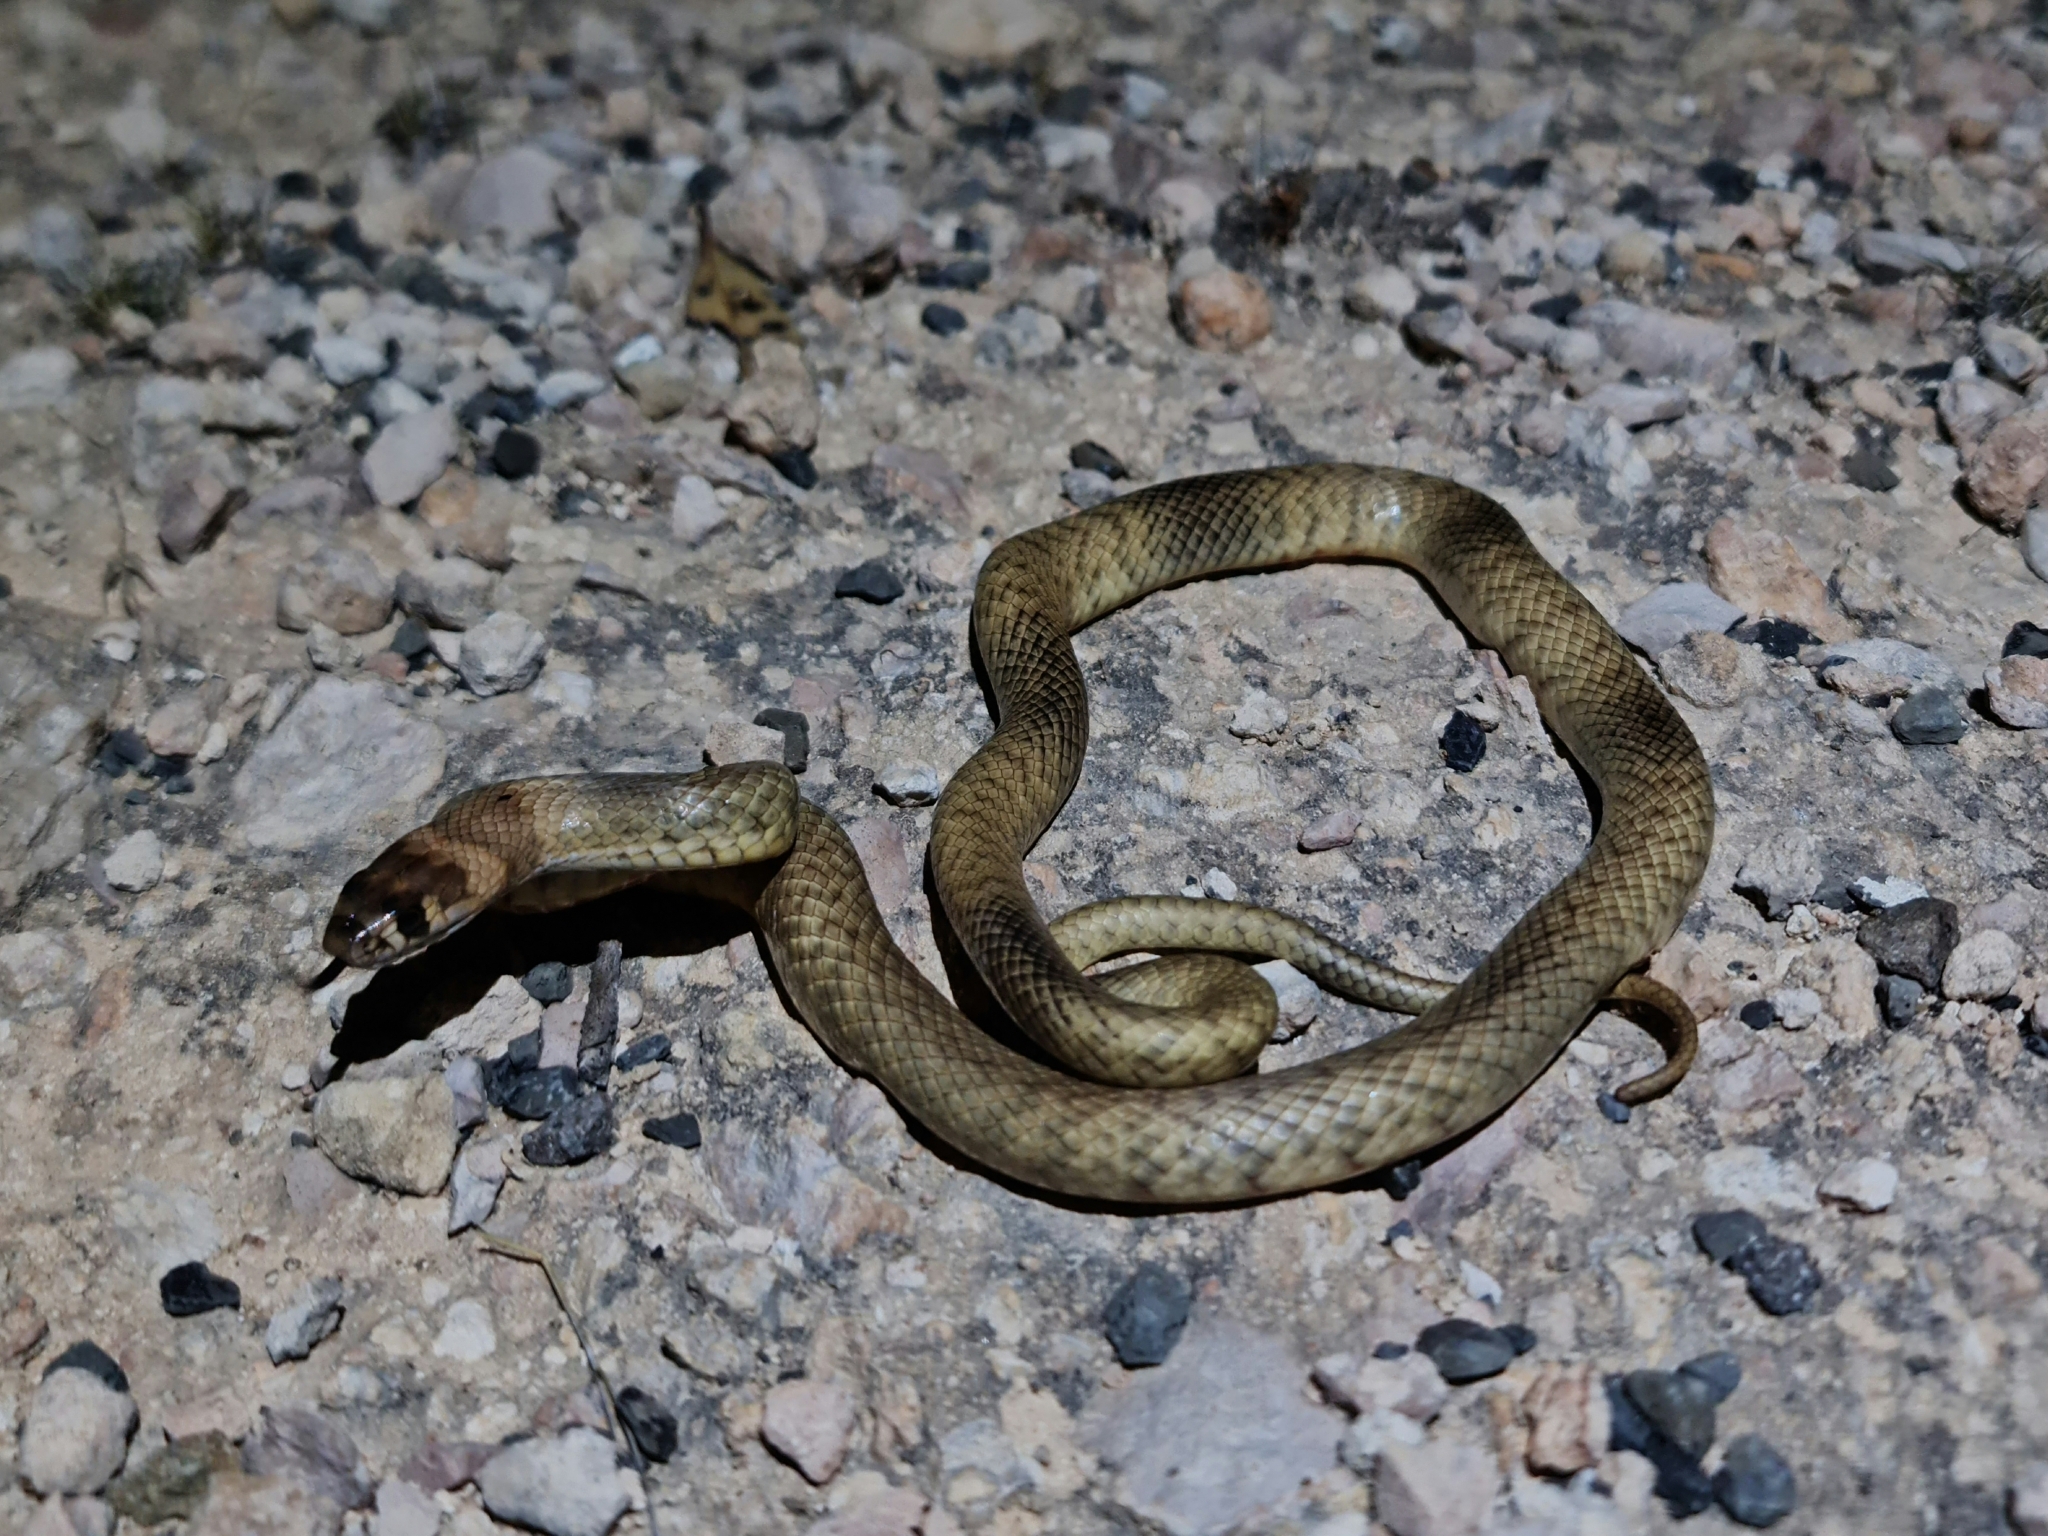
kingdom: Animalia
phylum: Chordata
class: Squamata
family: Elapidae
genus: Pseudonaja
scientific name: Pseudonaja aspidorhyncha
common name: Strap-snouted brown snake
